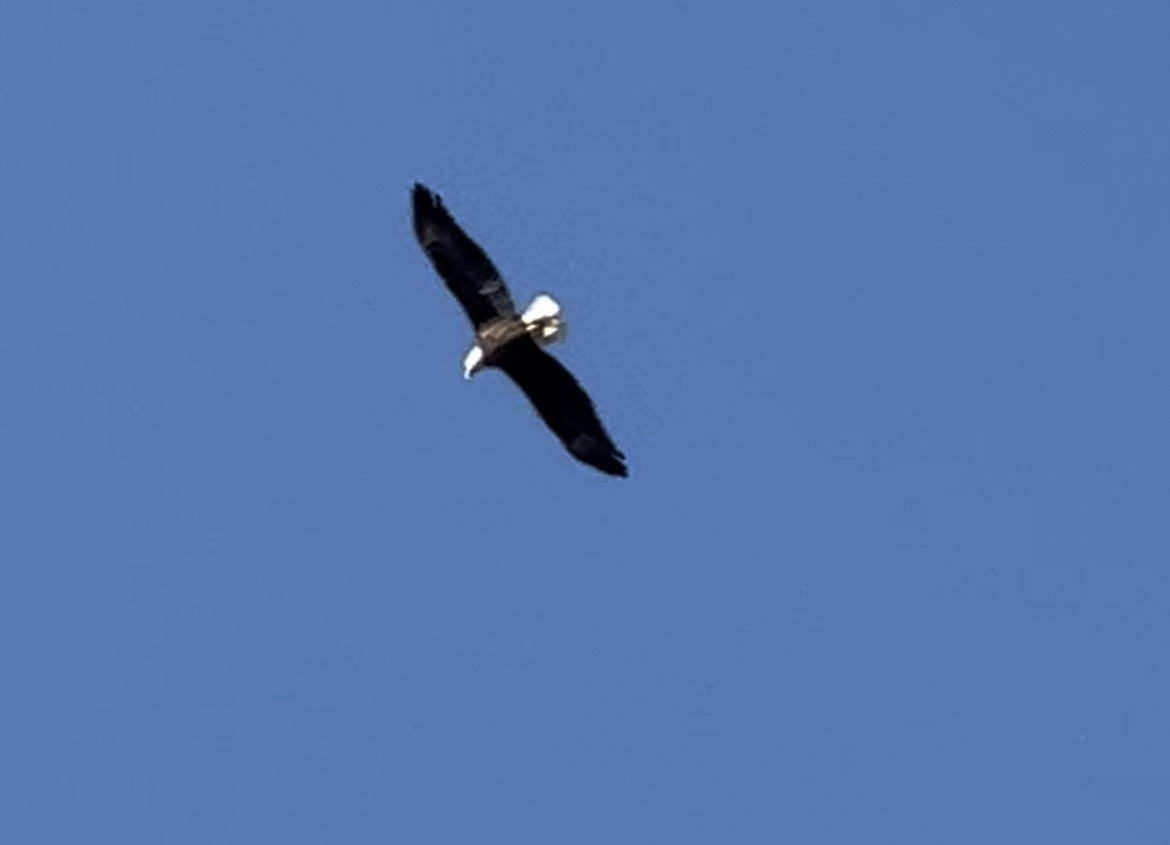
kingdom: Animalia
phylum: Chordata
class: Aves
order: Accipitriformes
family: Accipitridae
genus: Haliaeetus
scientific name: Haliaeetus leucocephalus
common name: Bald eagle
